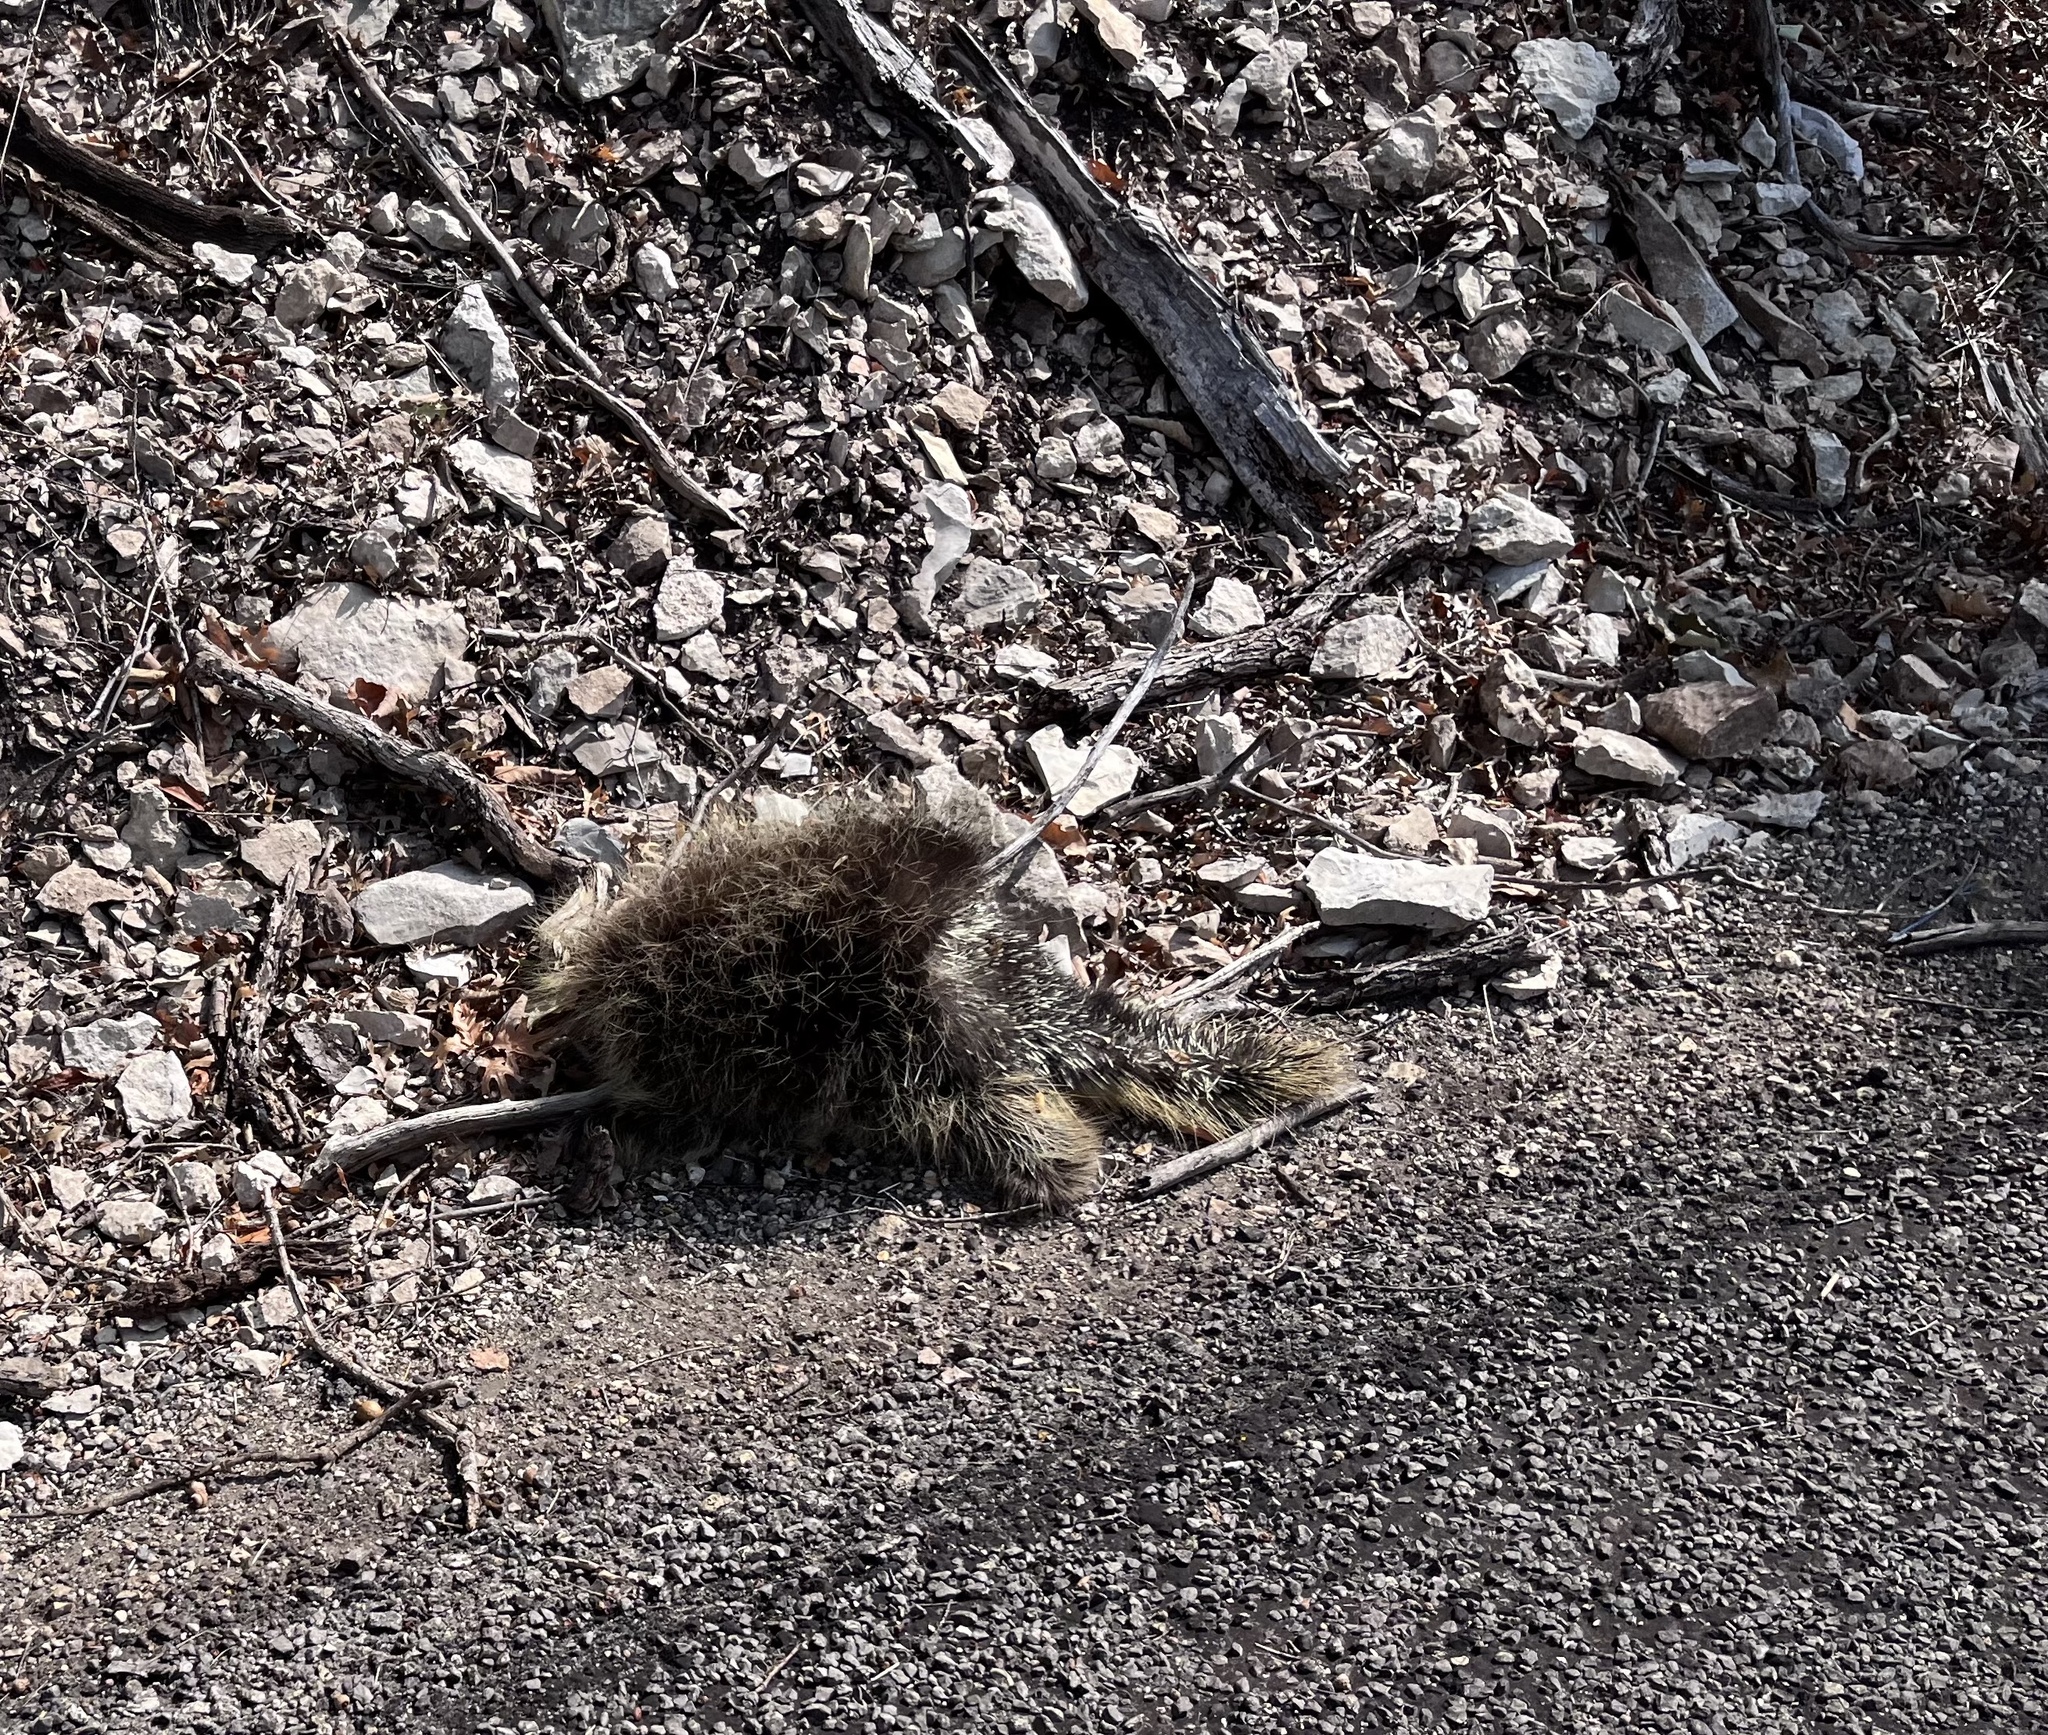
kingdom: Animalia
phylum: Chordata
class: Mammalia
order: Rodentia
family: Erethizontidae
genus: Erethizon
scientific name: Erethizon dorsatus
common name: North american porcupine
